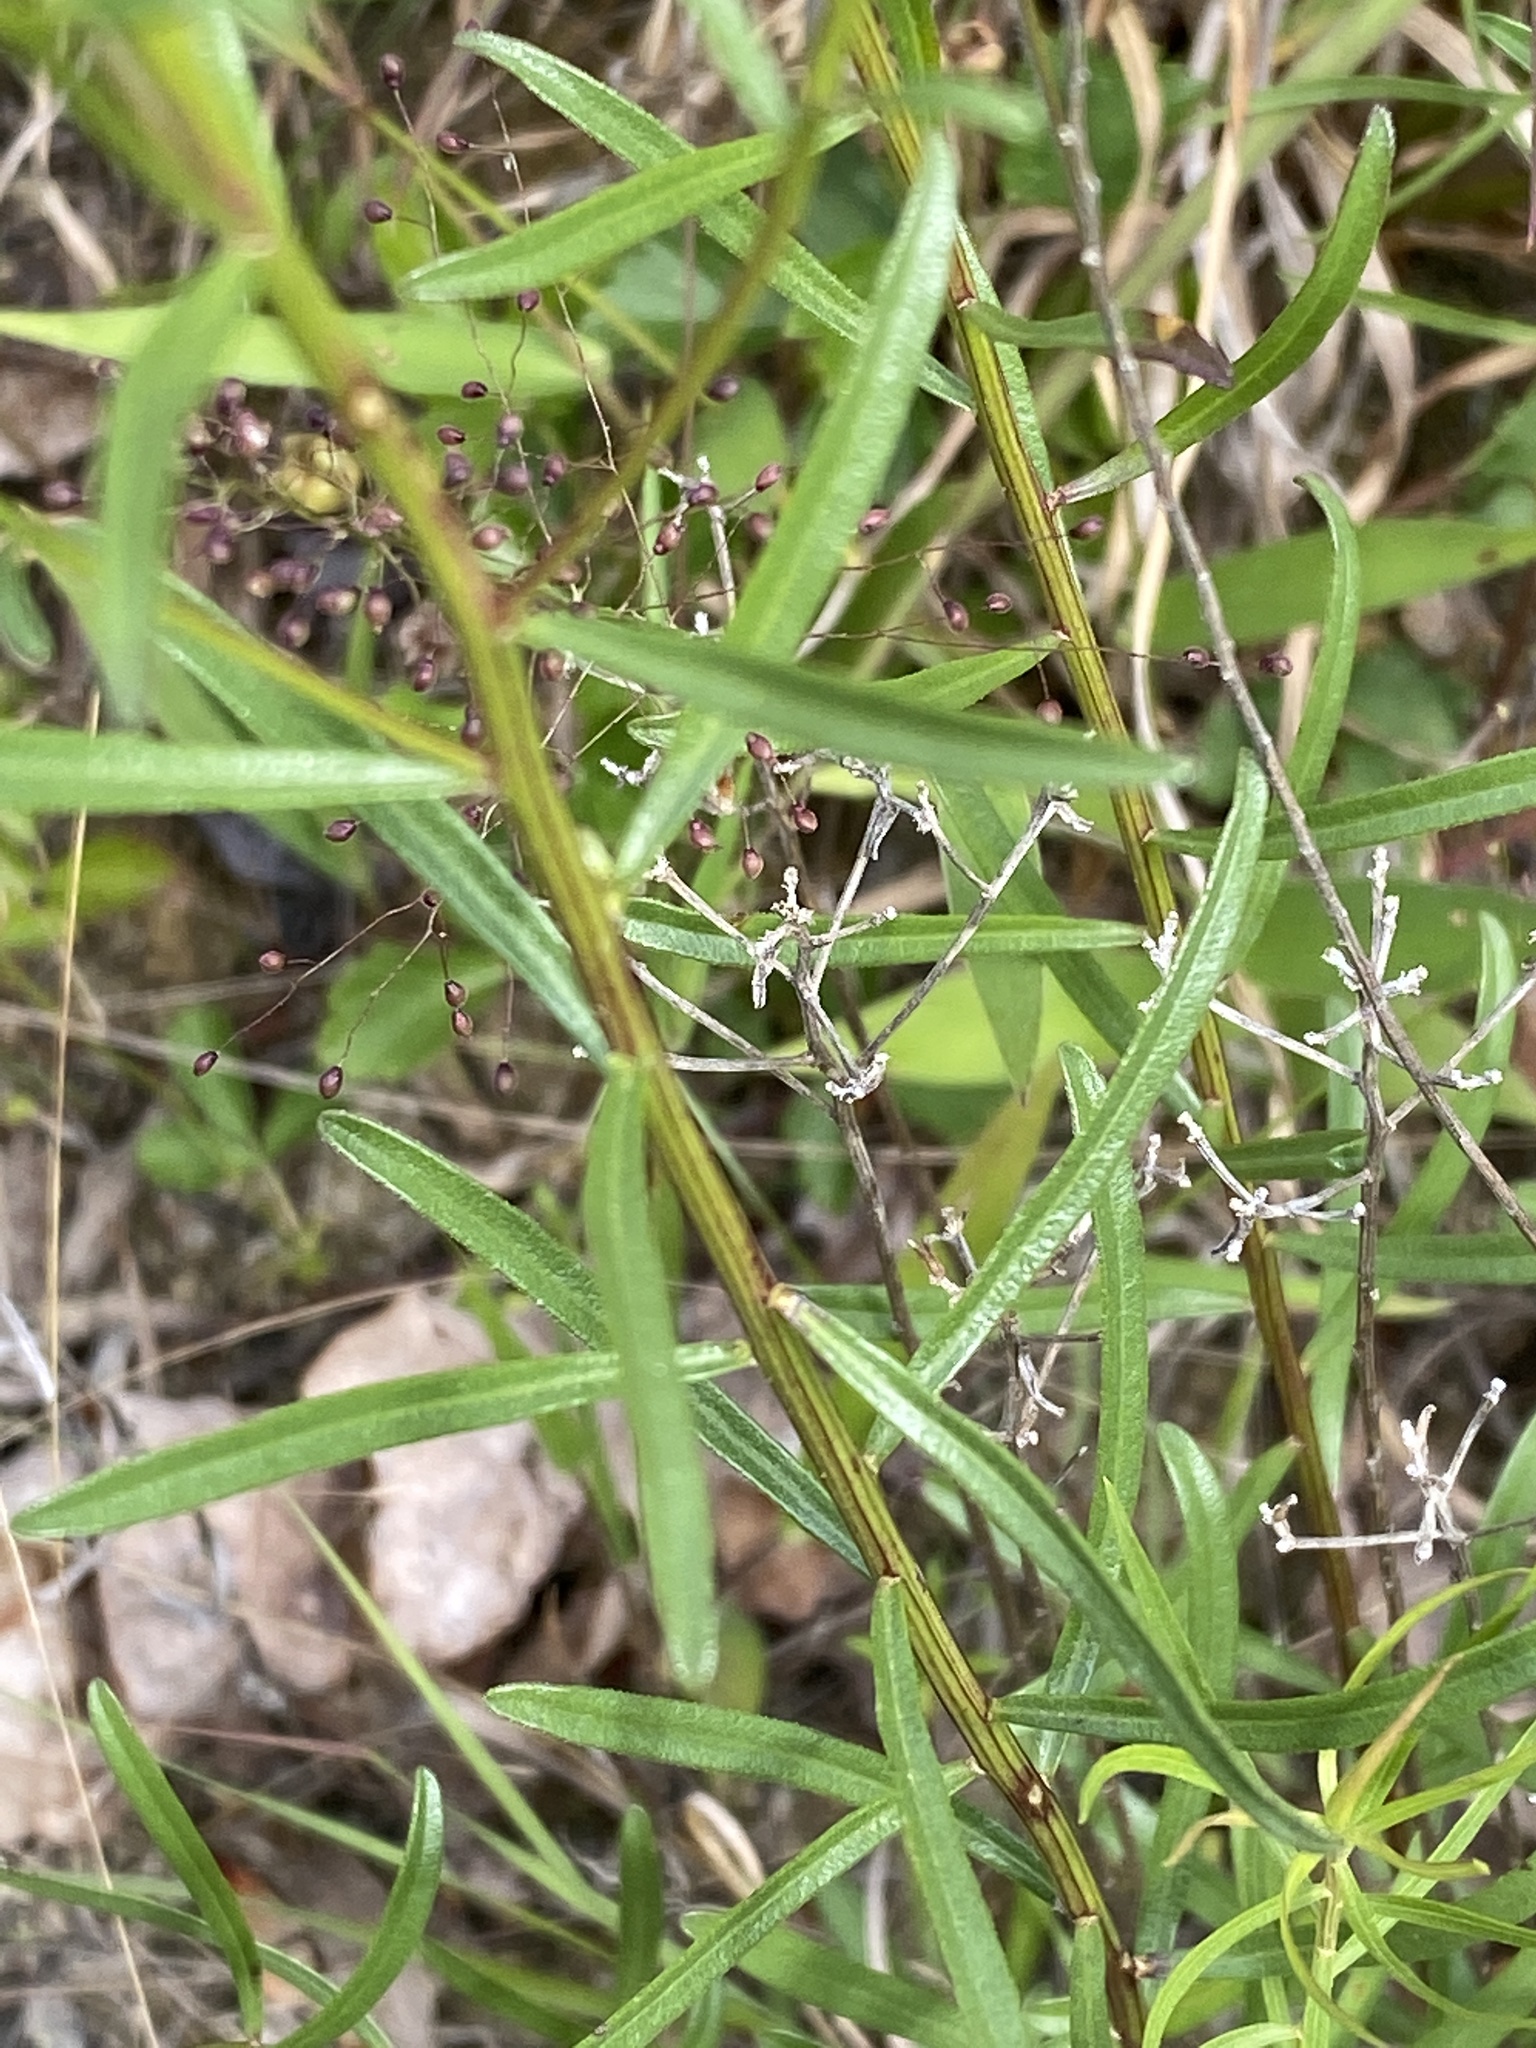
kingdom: Plantae
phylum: Tracheophyta
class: Magnoliopsida
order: Asterales
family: Asteraceae
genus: Sericocarpus
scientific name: Sericocarpus linifolius
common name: Narrow-leaf aster
